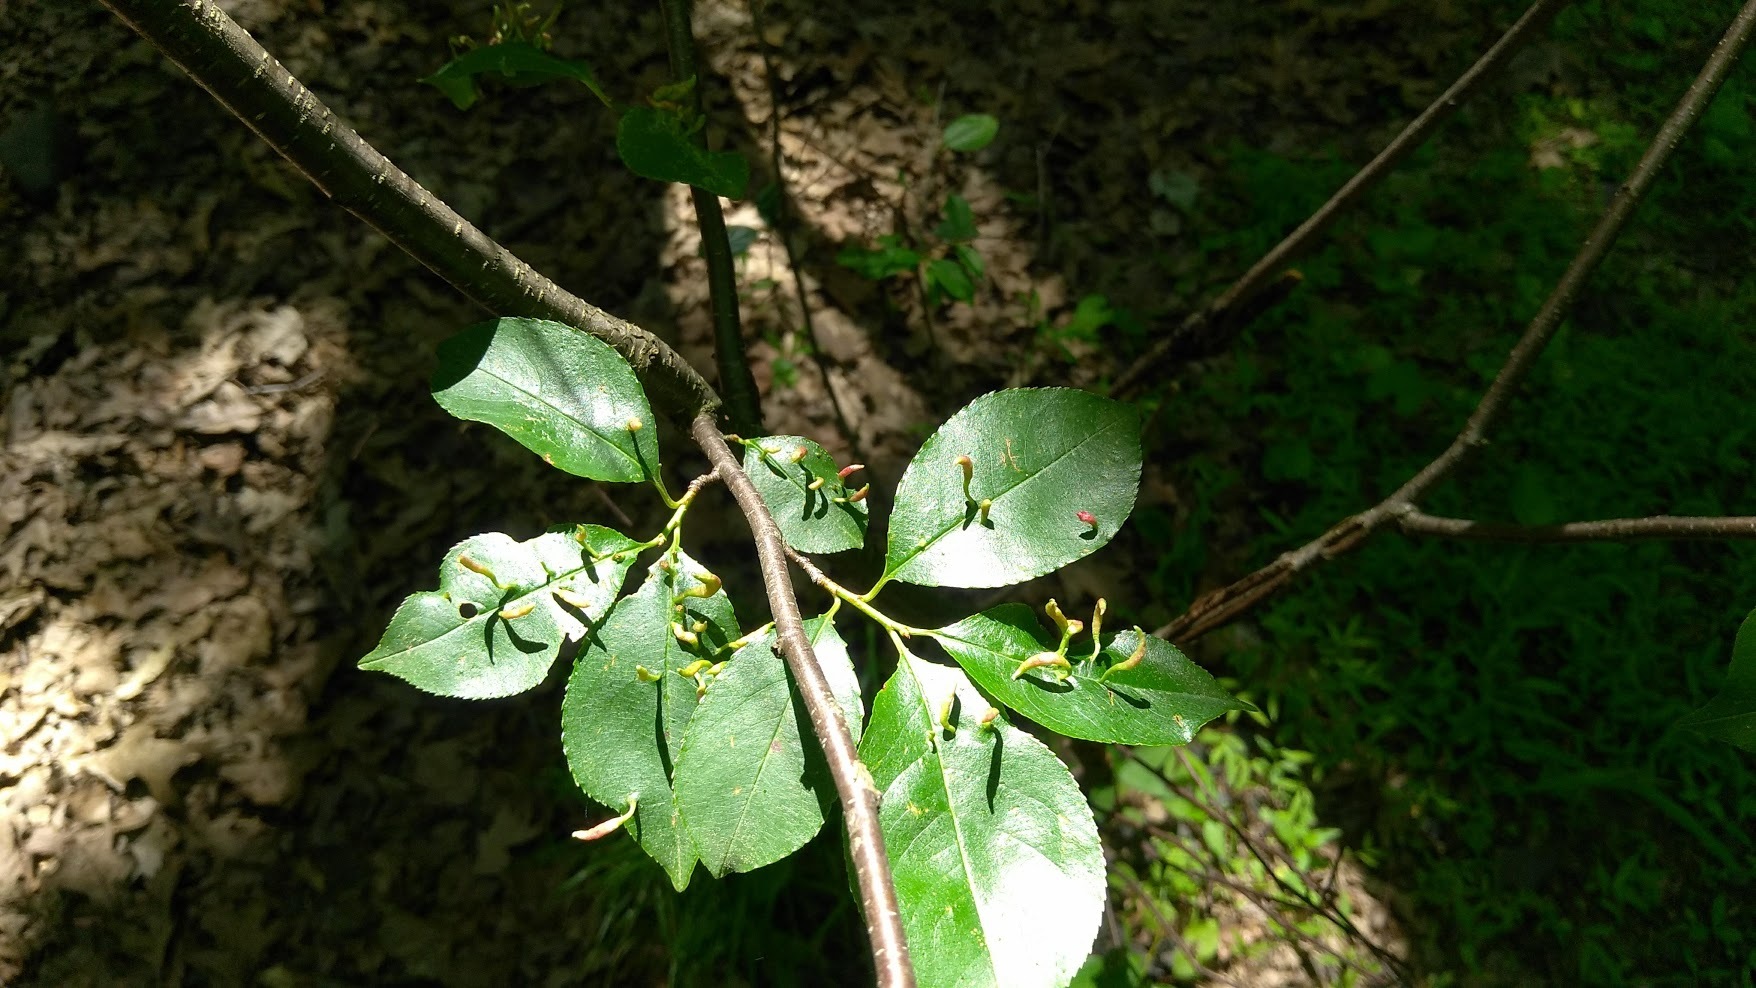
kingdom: Animalia
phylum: Arthropoda
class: Arachnida
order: Trombidiformes
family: Eriophyidae
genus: Eriophyes
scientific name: Eriophyes
